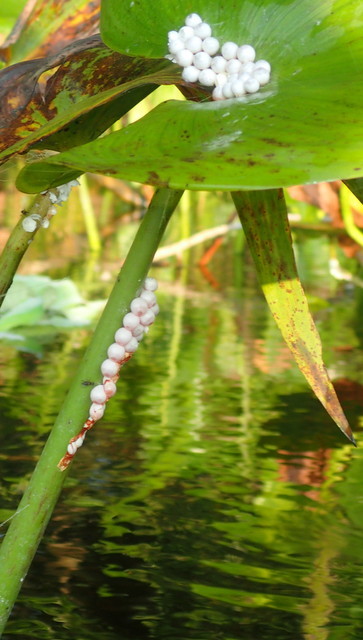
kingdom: Animalia
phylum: Mollusca
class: Gastropoda
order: Architaenioglossa
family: Ampullariidae
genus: Pomacea
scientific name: Pomacea paludosa
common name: Florida applesnail
